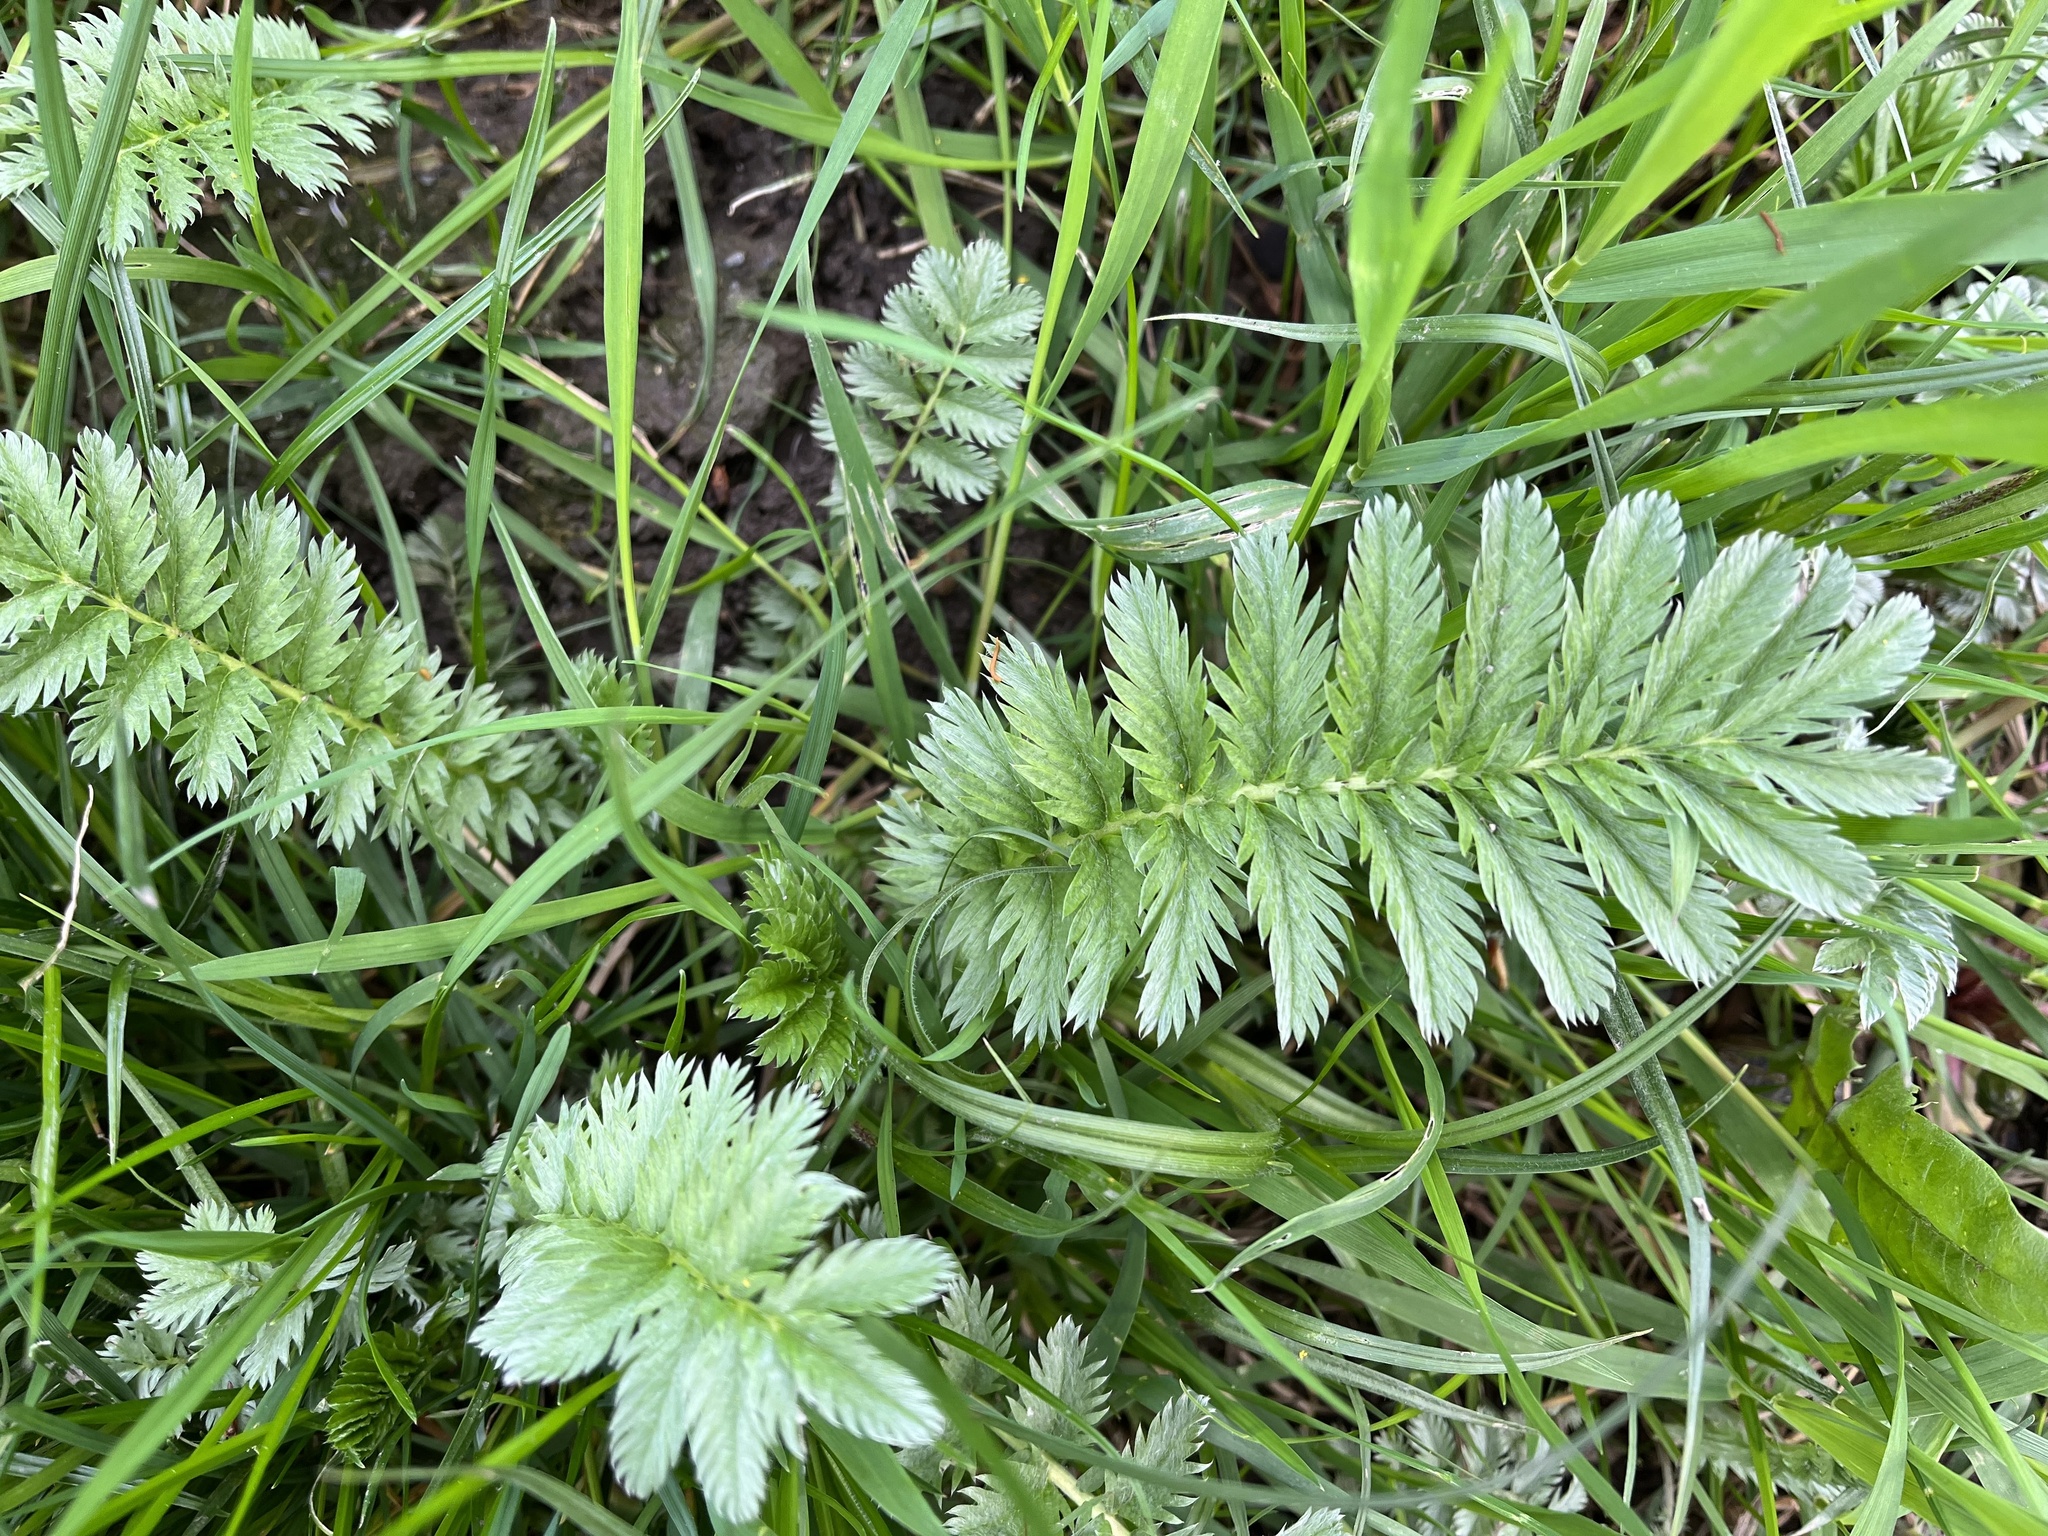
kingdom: Plantae
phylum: Tracheophyta
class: Magnoliopsida
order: Rosales
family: Rosaceae
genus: Argentina
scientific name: Argentina anserina
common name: Common silverweed
